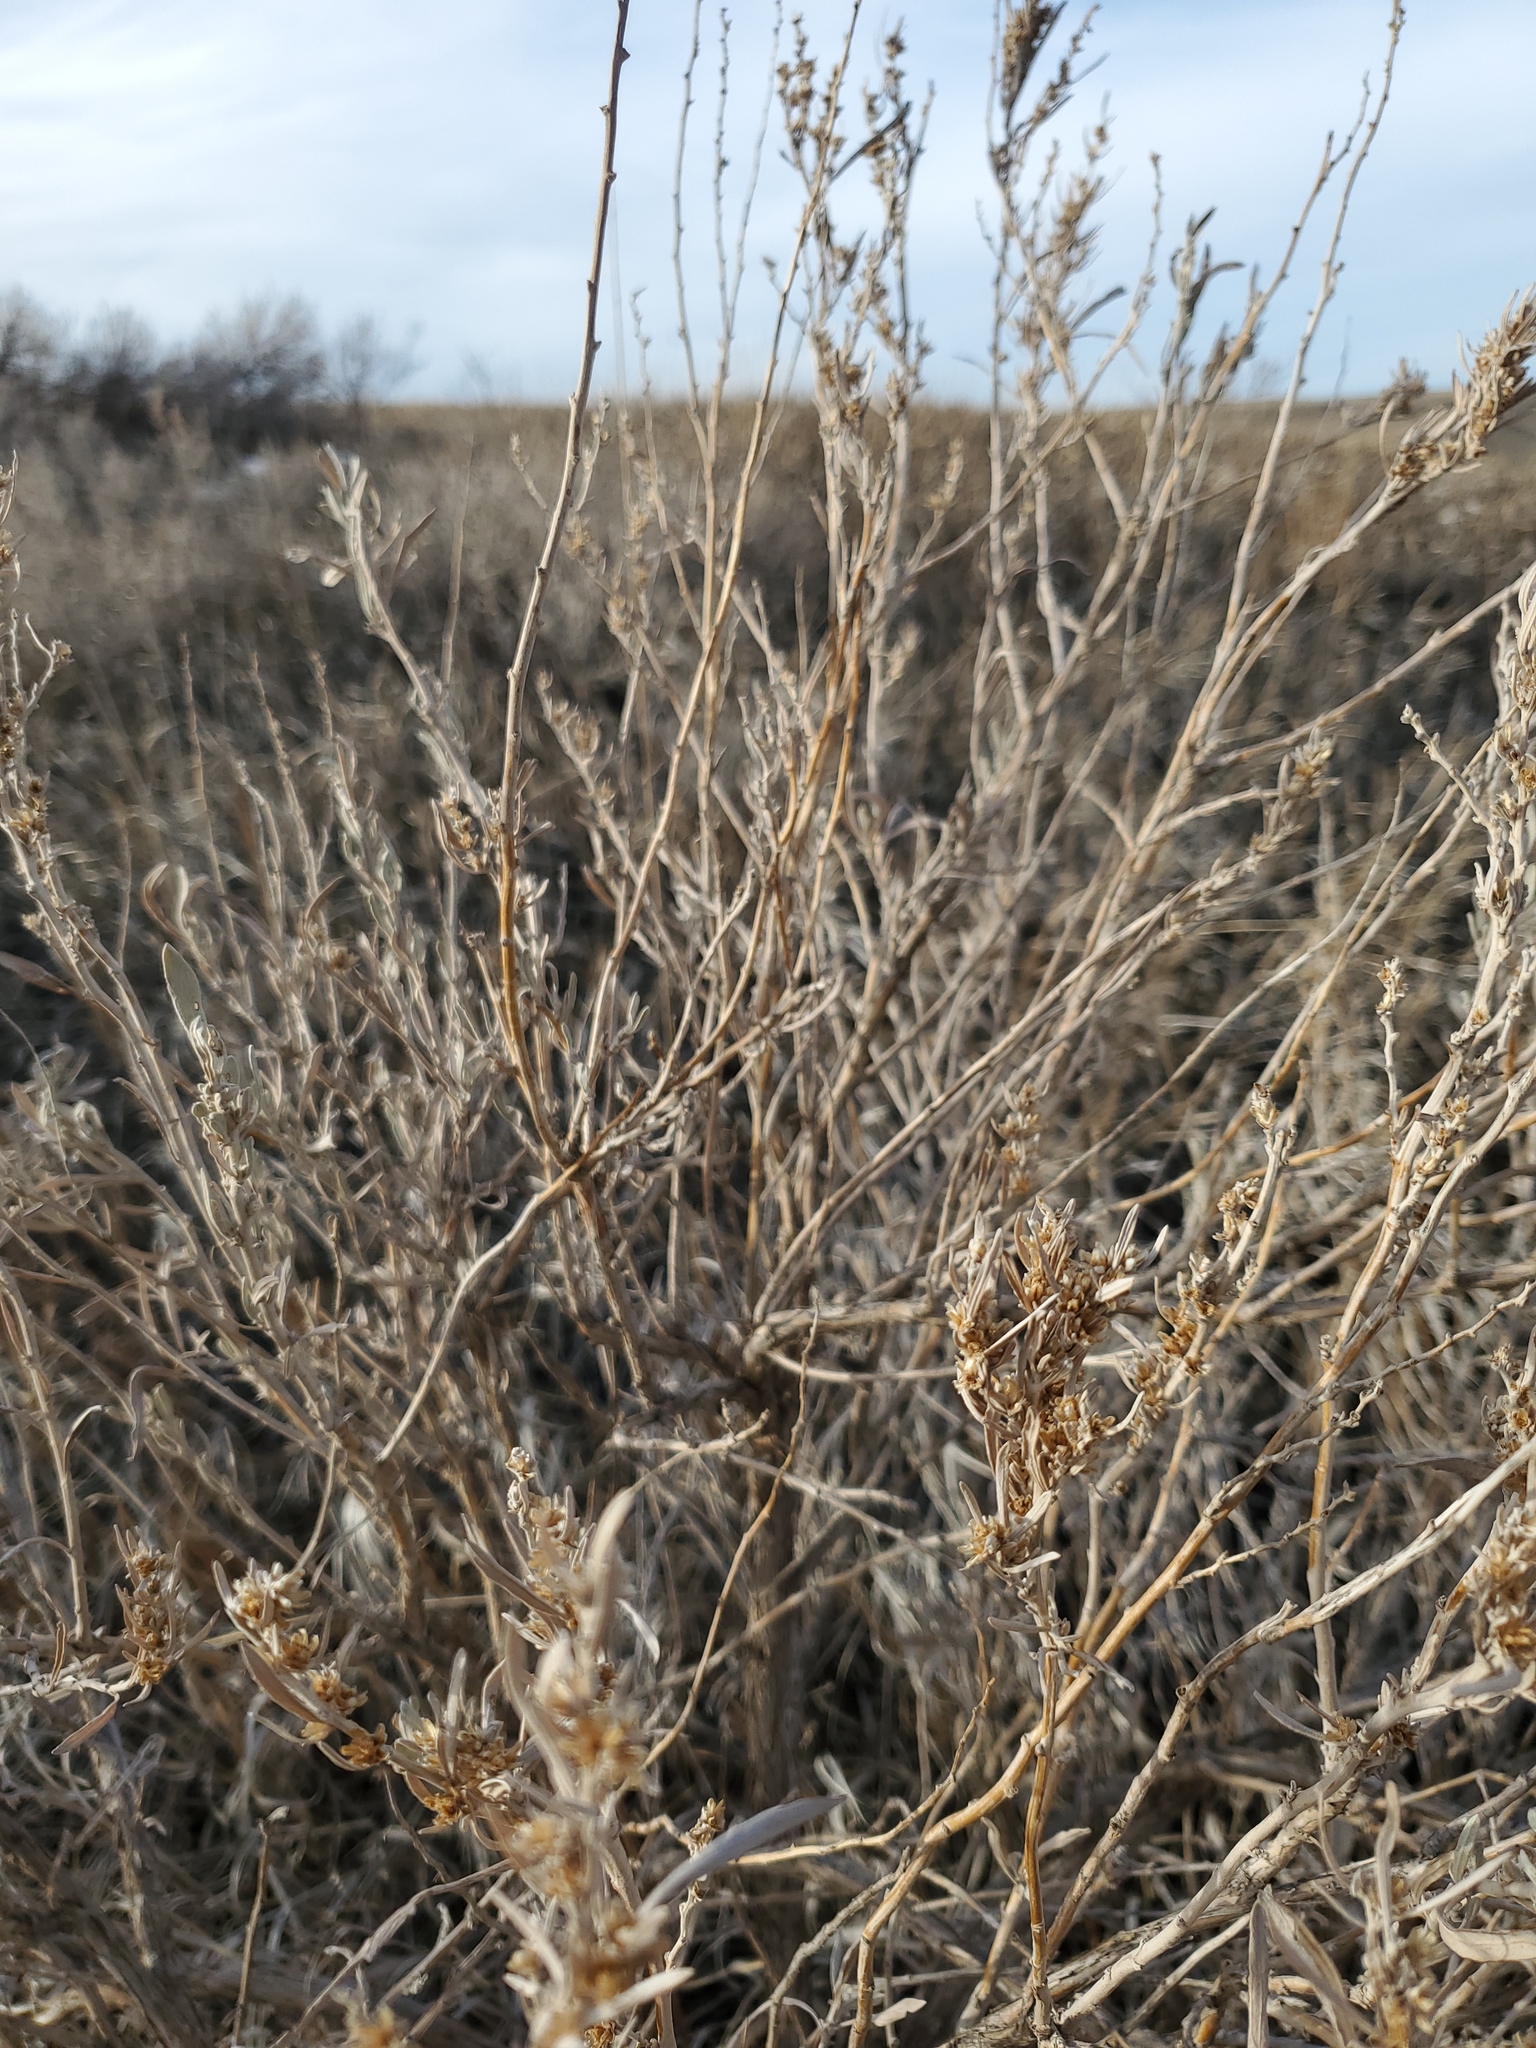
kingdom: Plantae
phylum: Tracheophyta
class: Magnoliopsida
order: Asterales
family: Asteraceae
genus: Artemisia
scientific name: Artemisia cana
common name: Silver sagebrush
